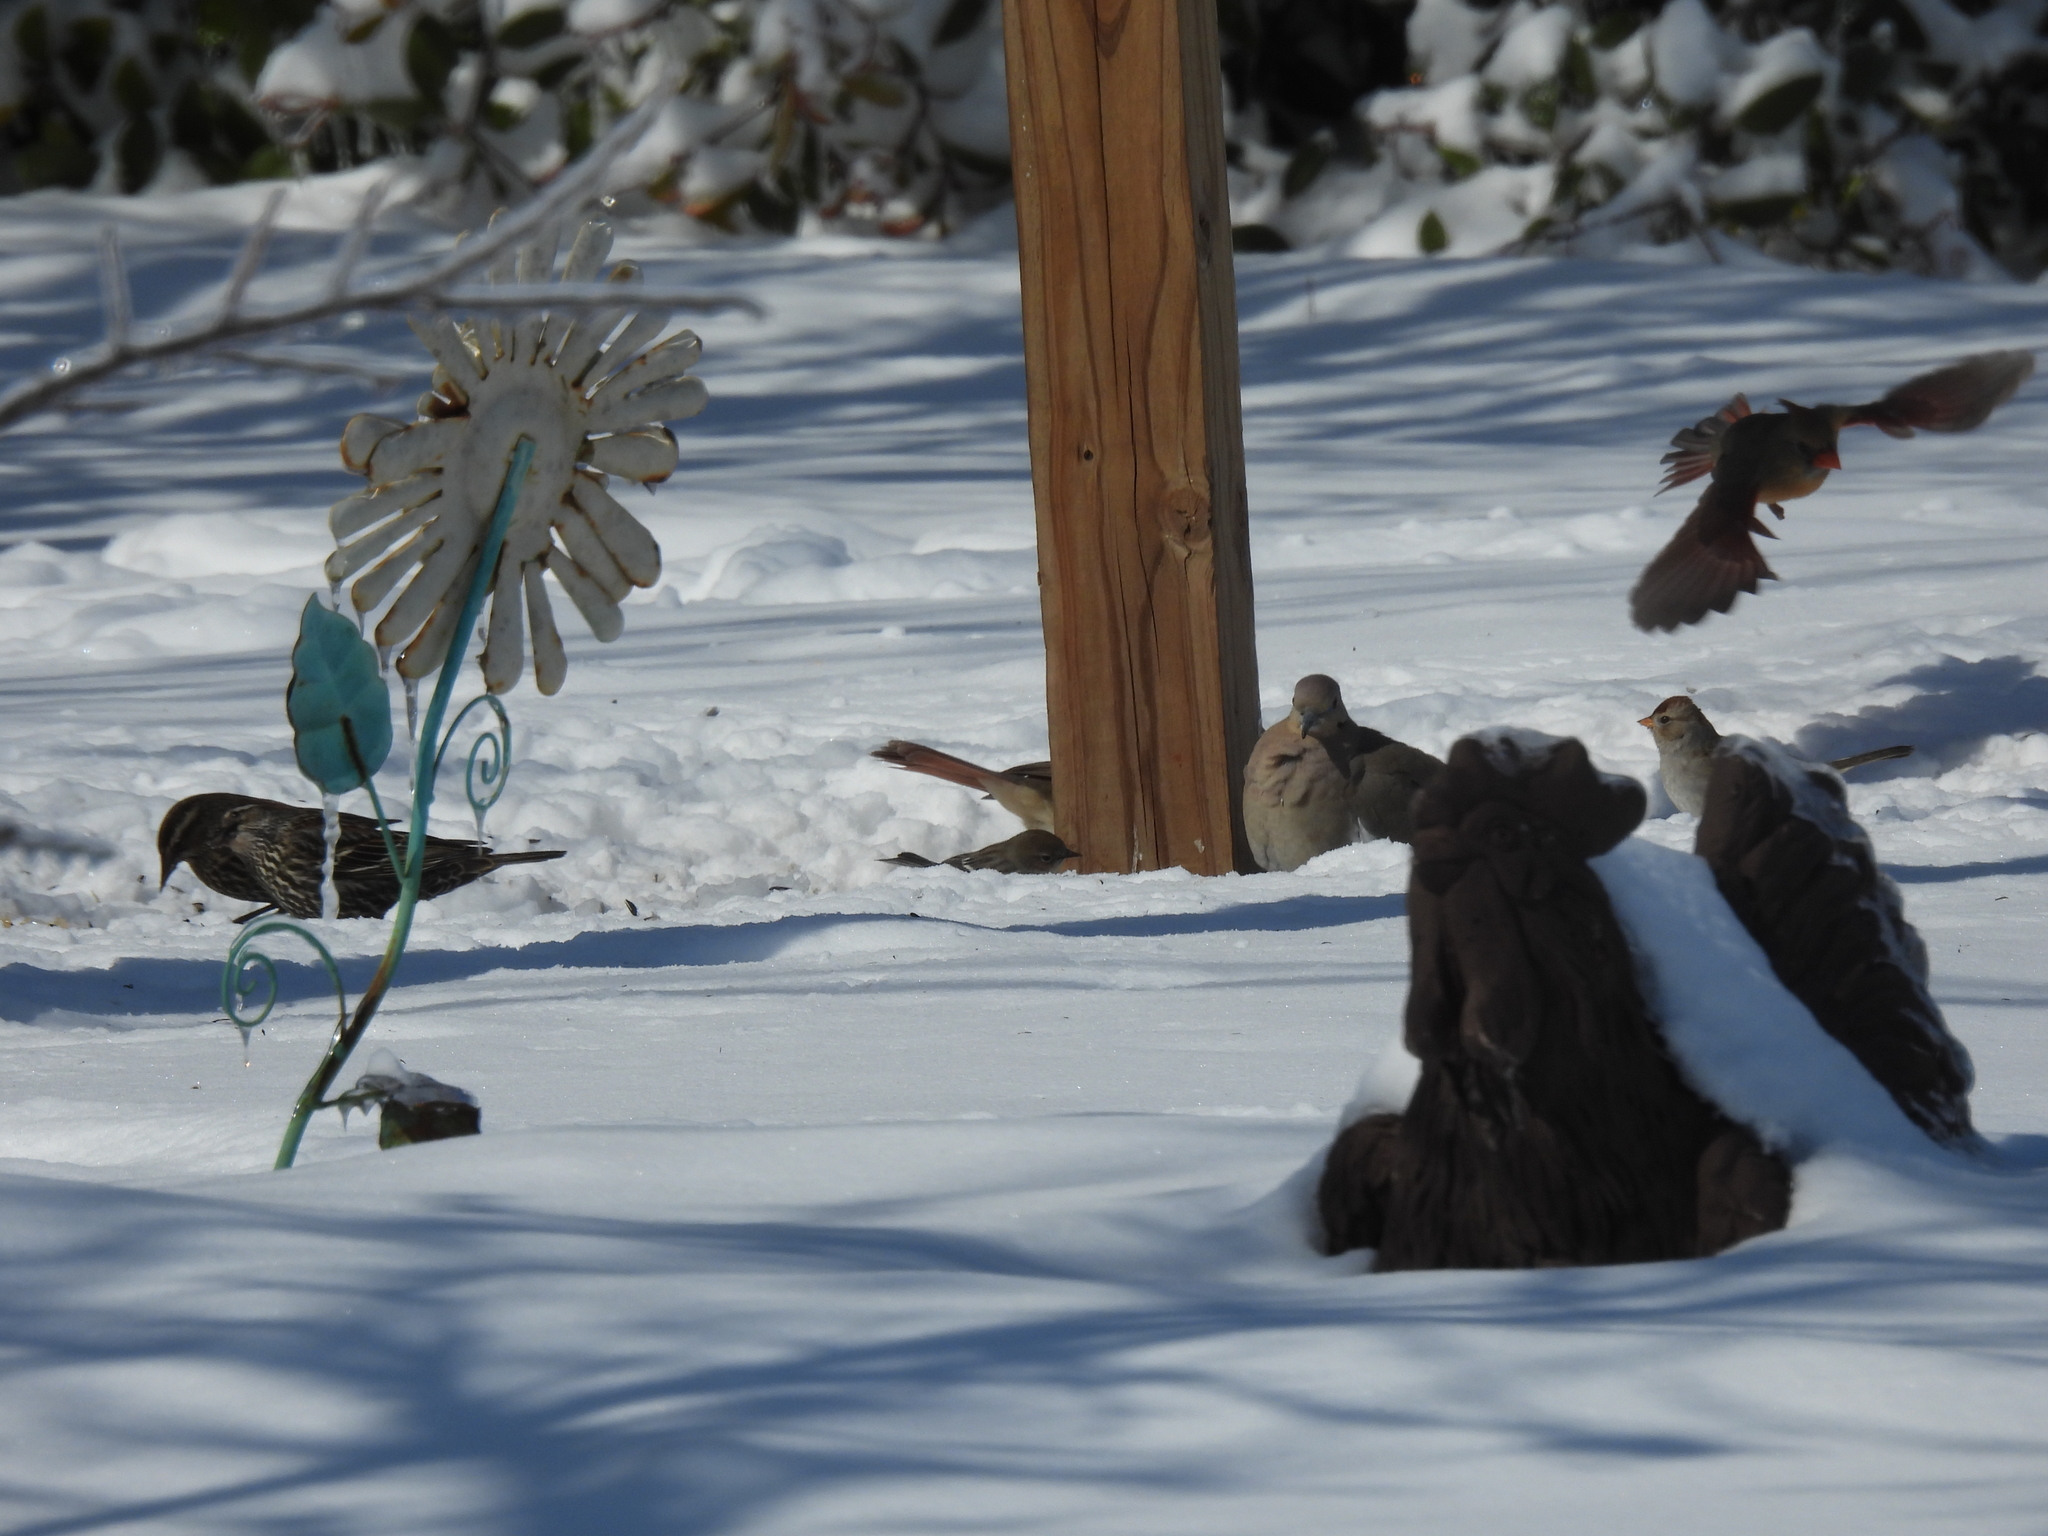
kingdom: Animalia
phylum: Chordata
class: Aves
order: Passeriformes
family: Cardinalidae
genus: Cardinalis
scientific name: Cardinalis cardinalis
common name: Northern cardinal
